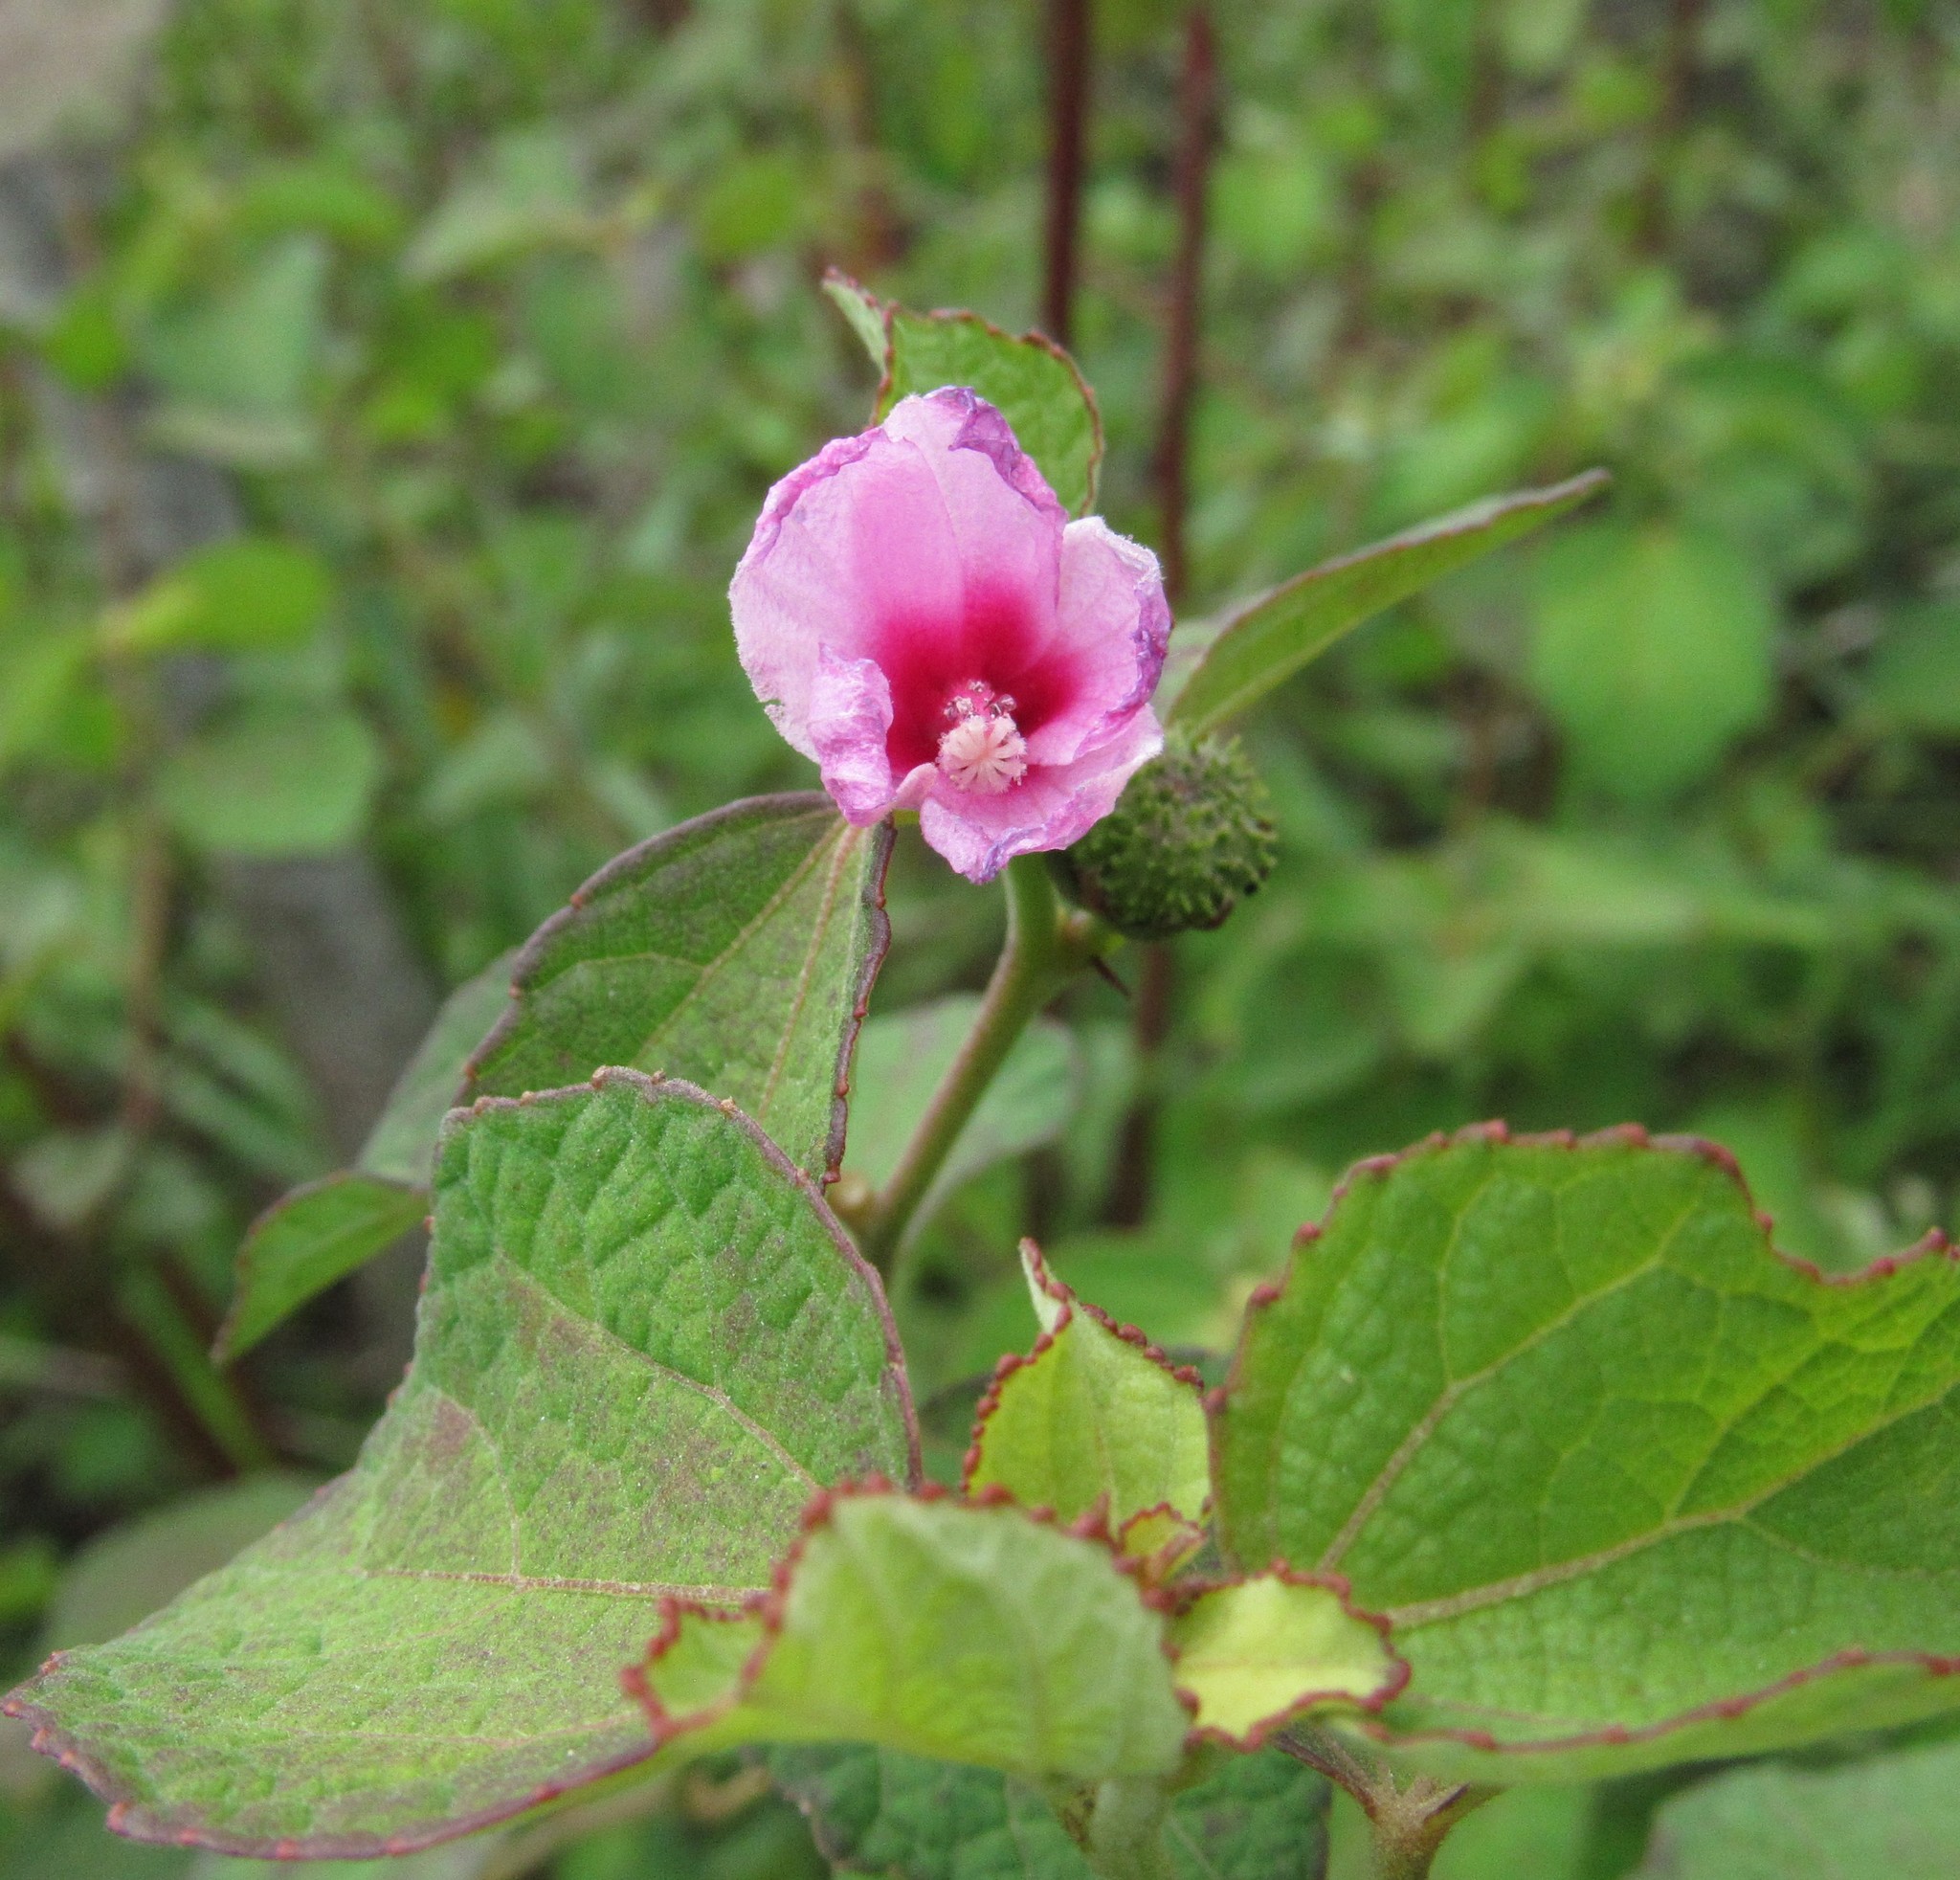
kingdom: Plantae
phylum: Tracheophyta
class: Magnoliopsida
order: Malvales
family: Malvaceae
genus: Urena
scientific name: Urena lobata
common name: Caesarweed
